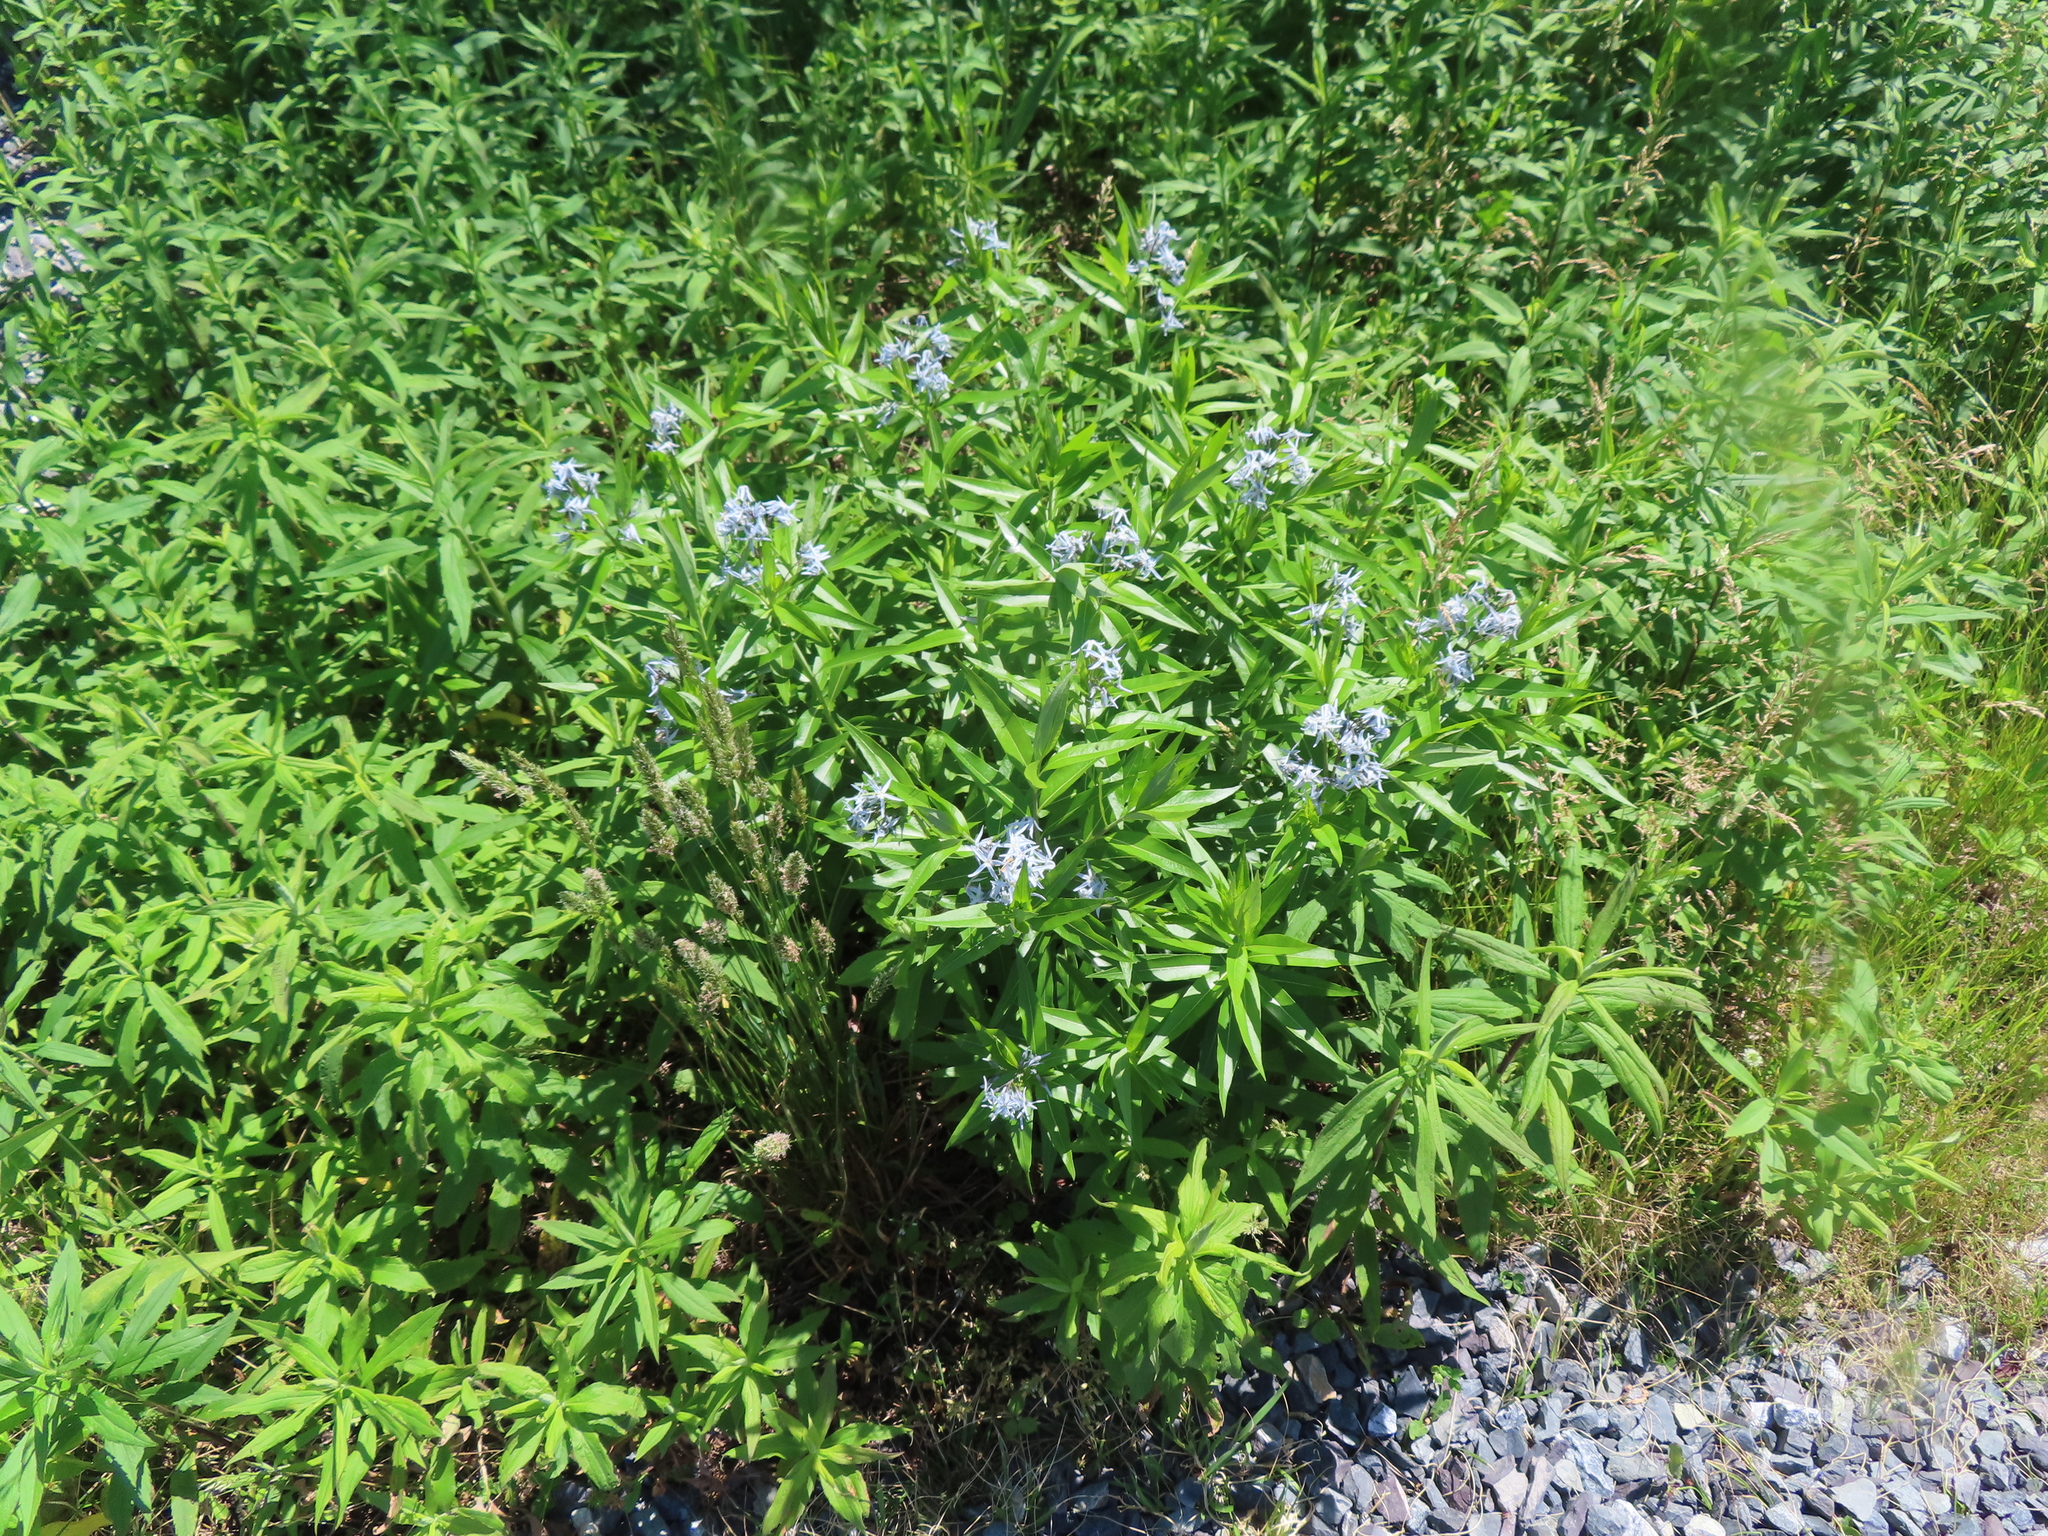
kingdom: Plantae
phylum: Tracheophyta
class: Magnoliopsida
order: Gentianales
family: Apocynaceae
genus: Amsonia
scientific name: Amsonia tabernaemontana
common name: Texas-star
